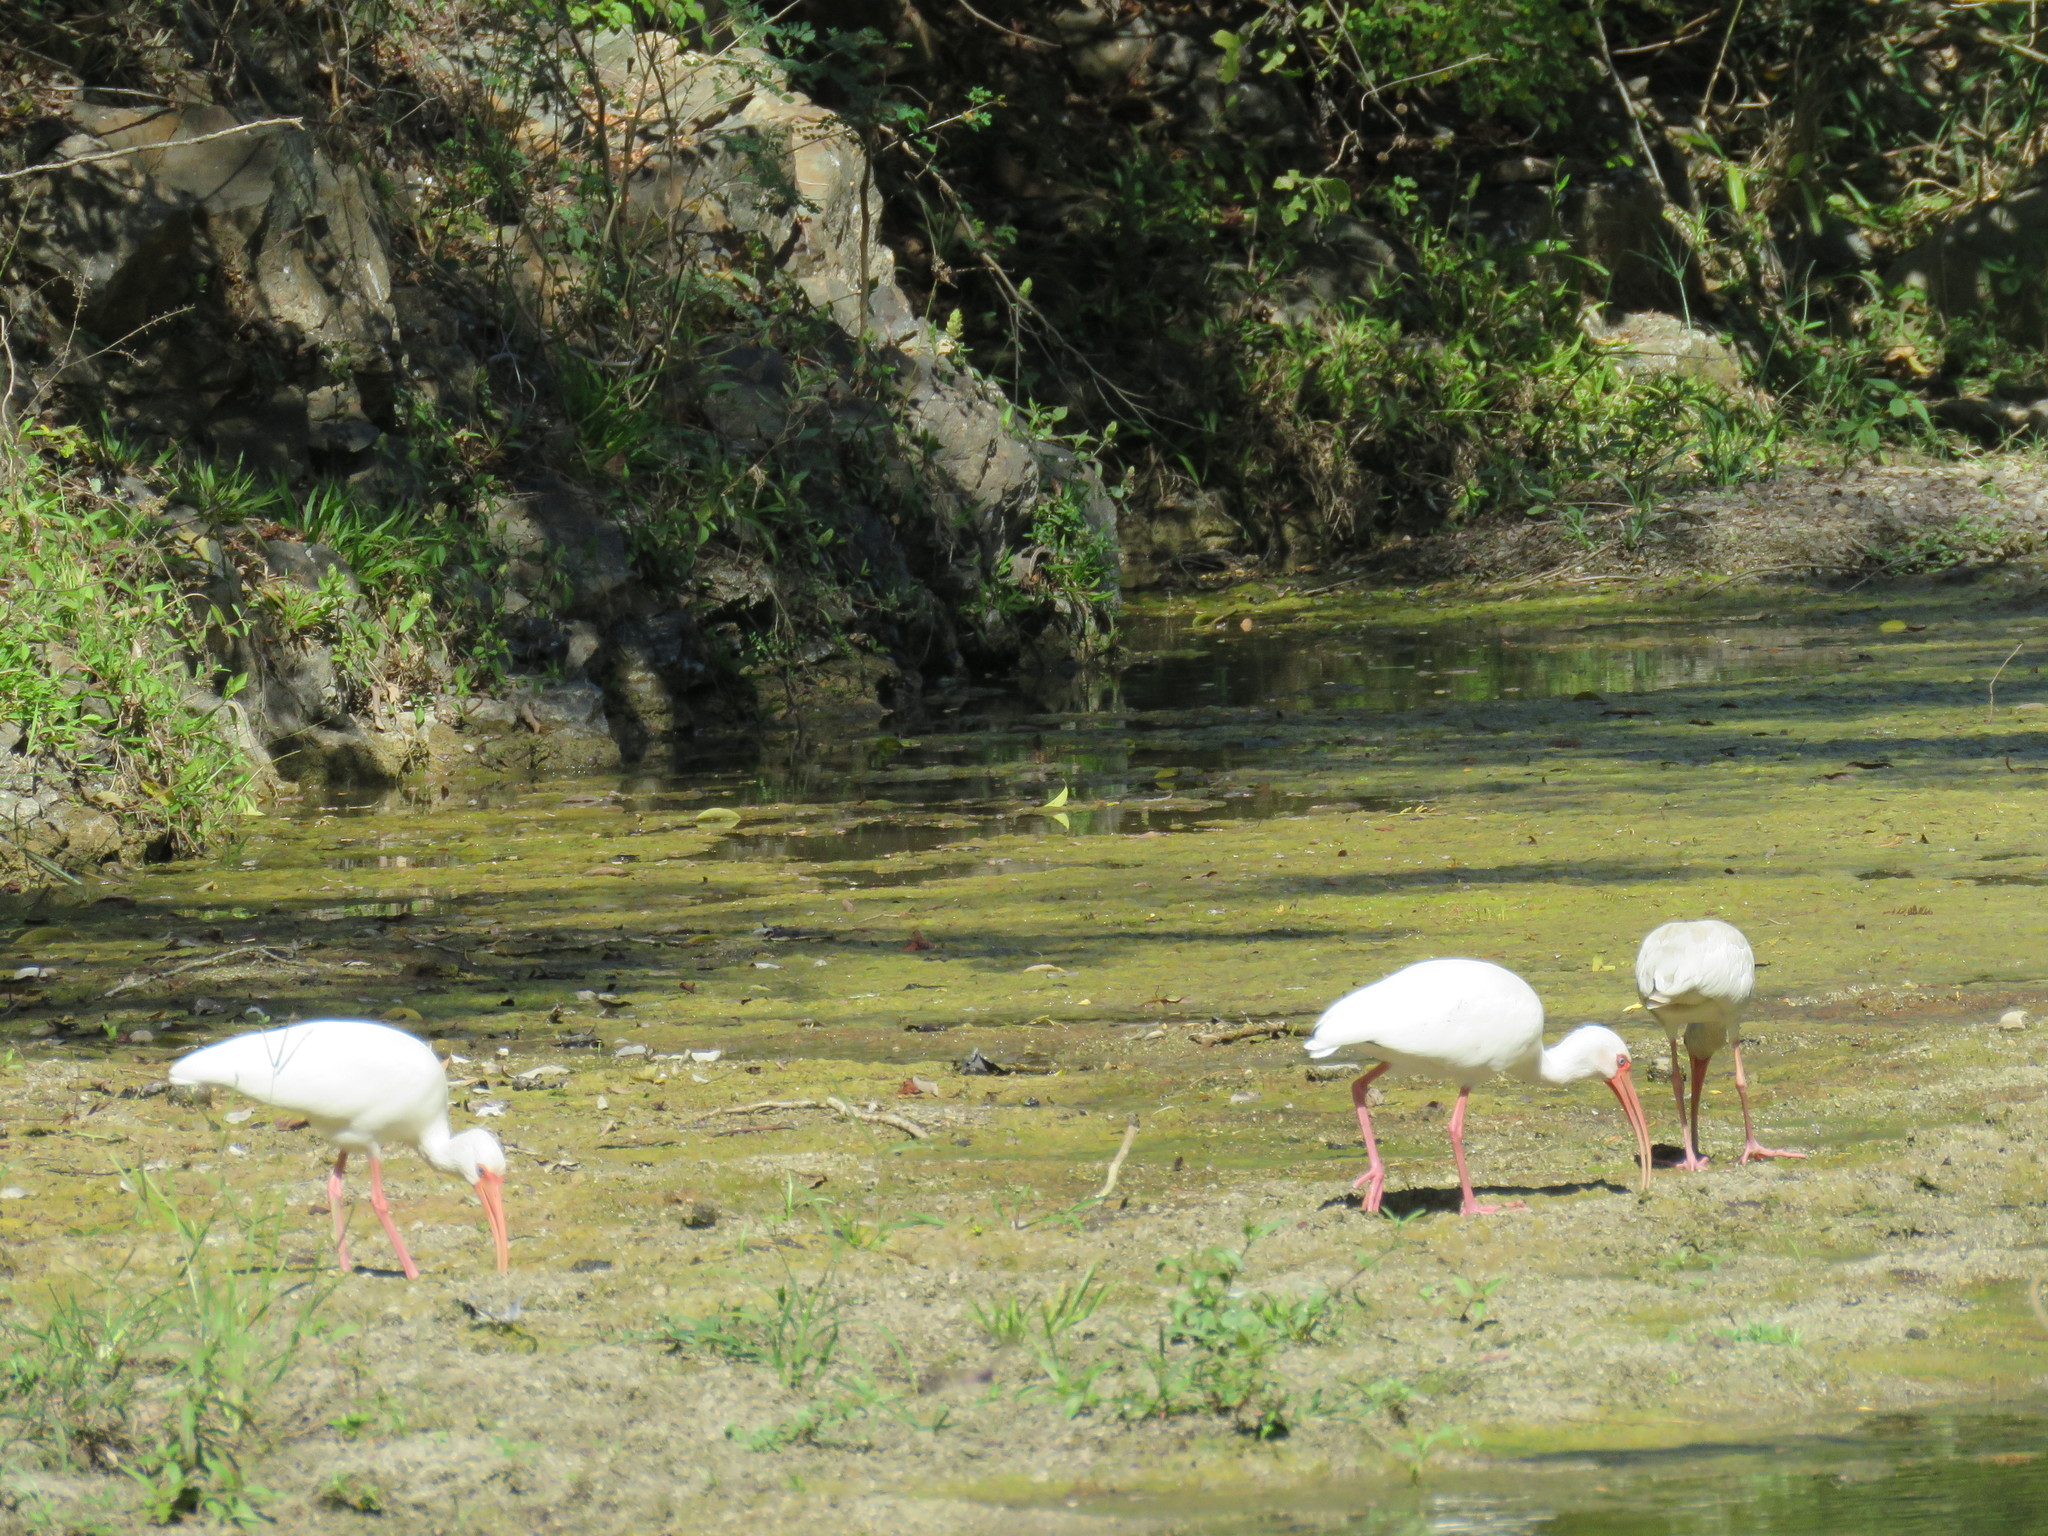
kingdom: Animalia
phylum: Chordata
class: Aves
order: Pelecaniformes
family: Threskiornithidae
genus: Eudocimus
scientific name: Eudocimus albus
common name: White ibis
